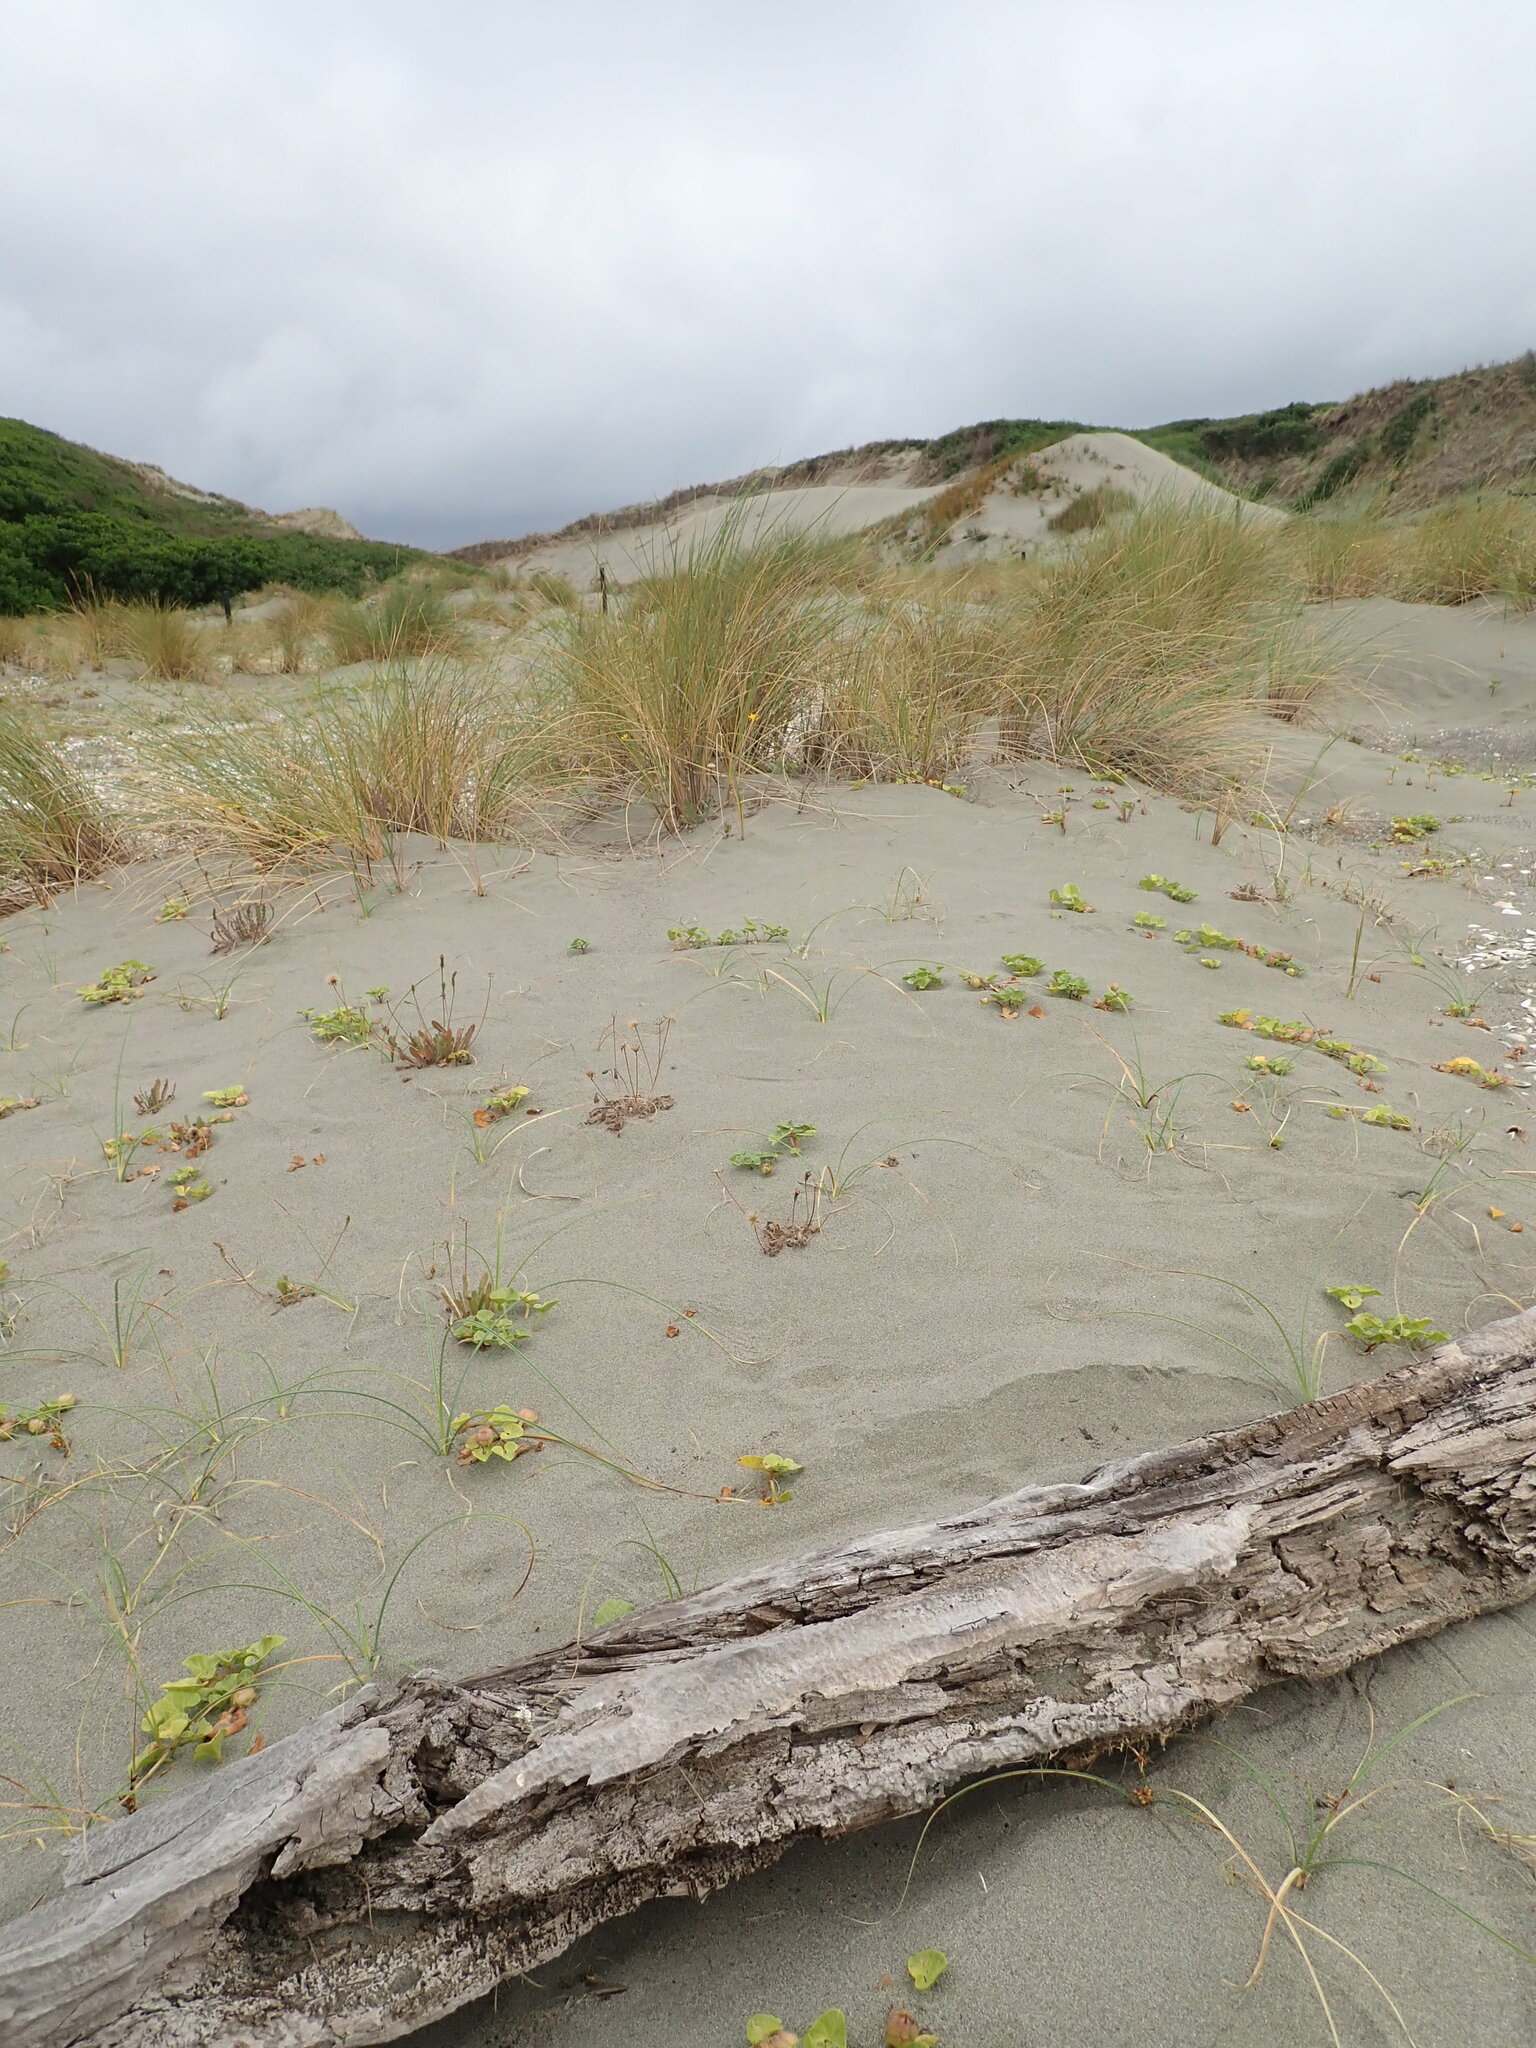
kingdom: Animalia
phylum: Arthropoda
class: Arachnida
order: Araneae
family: Theridiidae
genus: Steatoda
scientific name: Steatoda capensis
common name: Cobweb weaver
